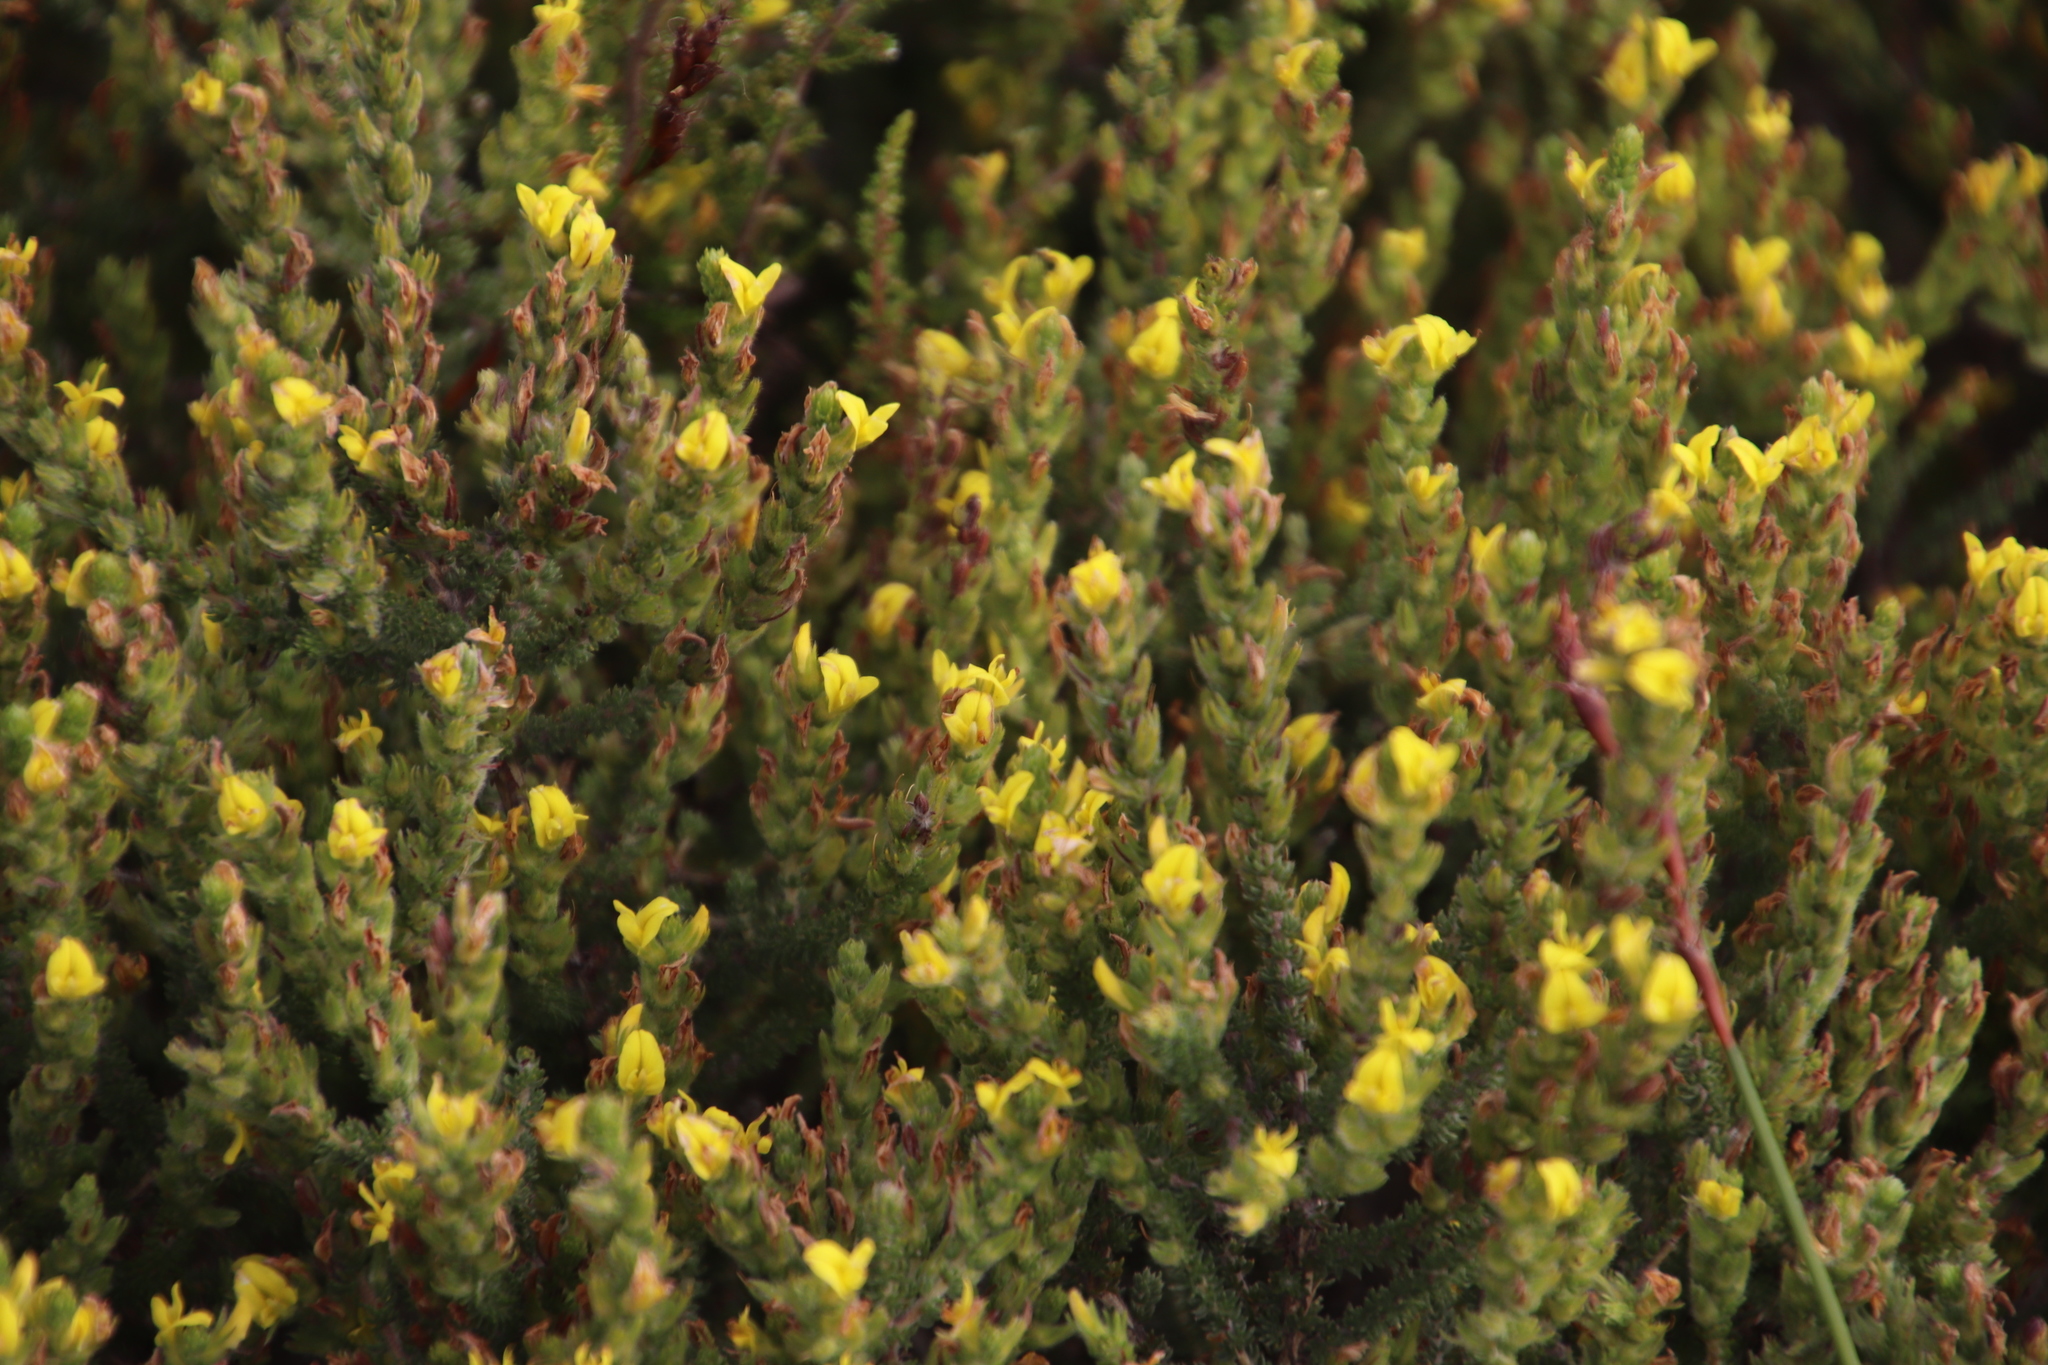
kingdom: Plantae
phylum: Tracheophyta
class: Magnoliopsida
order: Fabales
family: Fabaceae
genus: Aspalathus
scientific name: Aspalathus ericifolia
